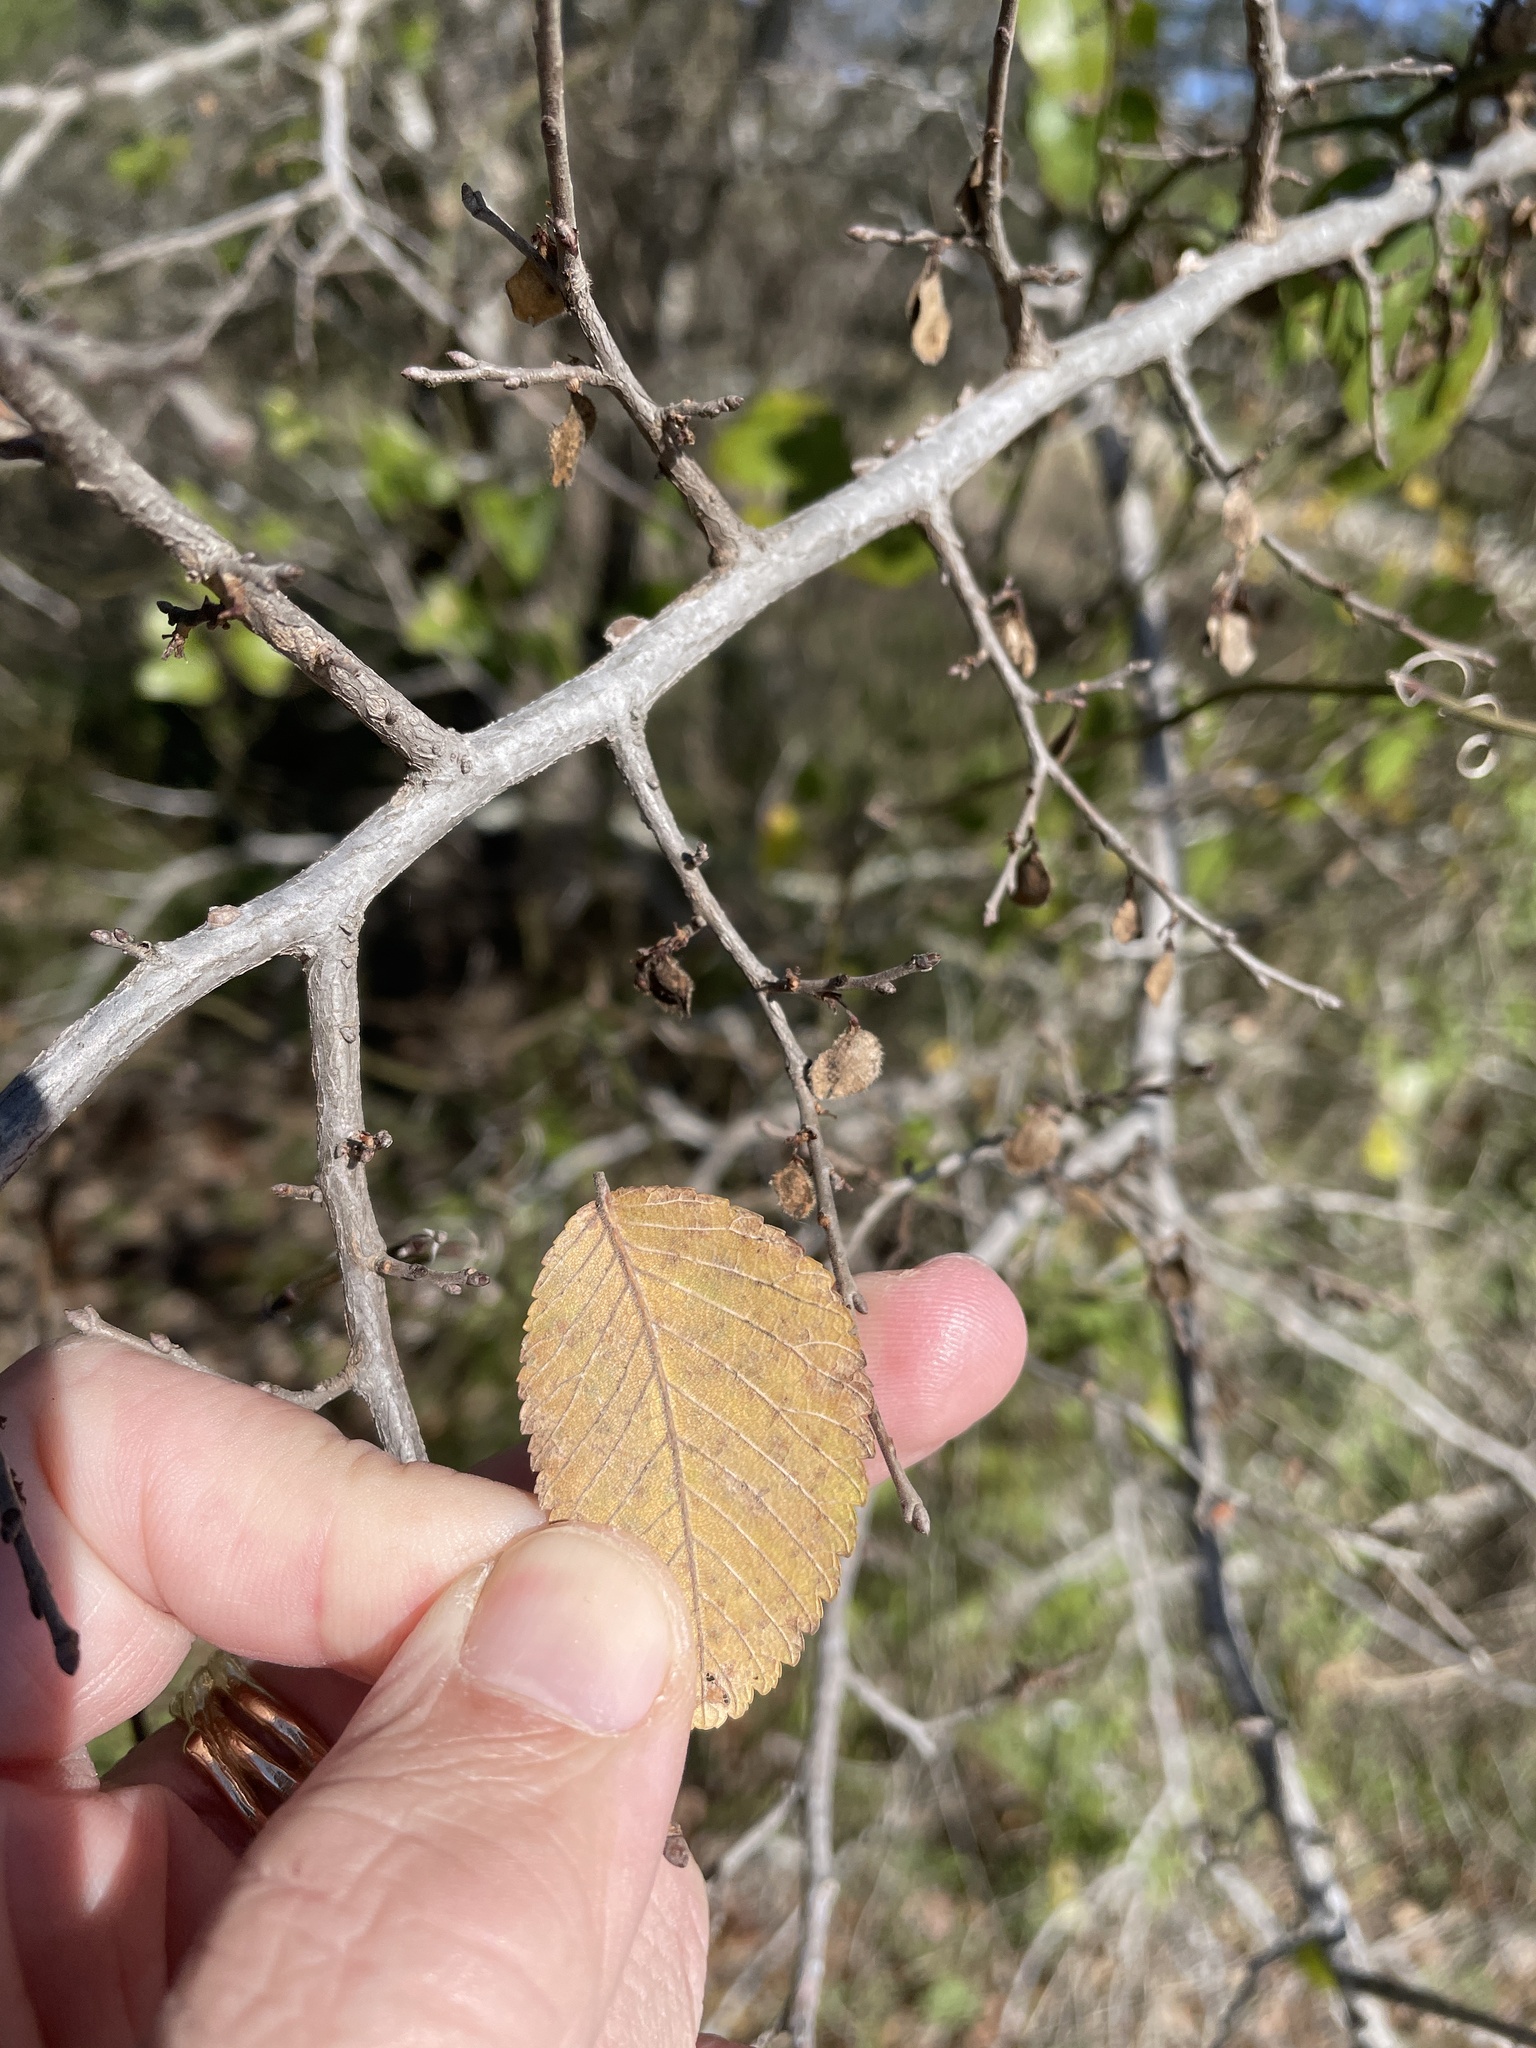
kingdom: Plantae
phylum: Tracheophyta
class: Magnoliopsida
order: Rosales
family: Ulmaceae
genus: Ulmus
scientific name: Ulmus crassifolia
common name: Basket elm
